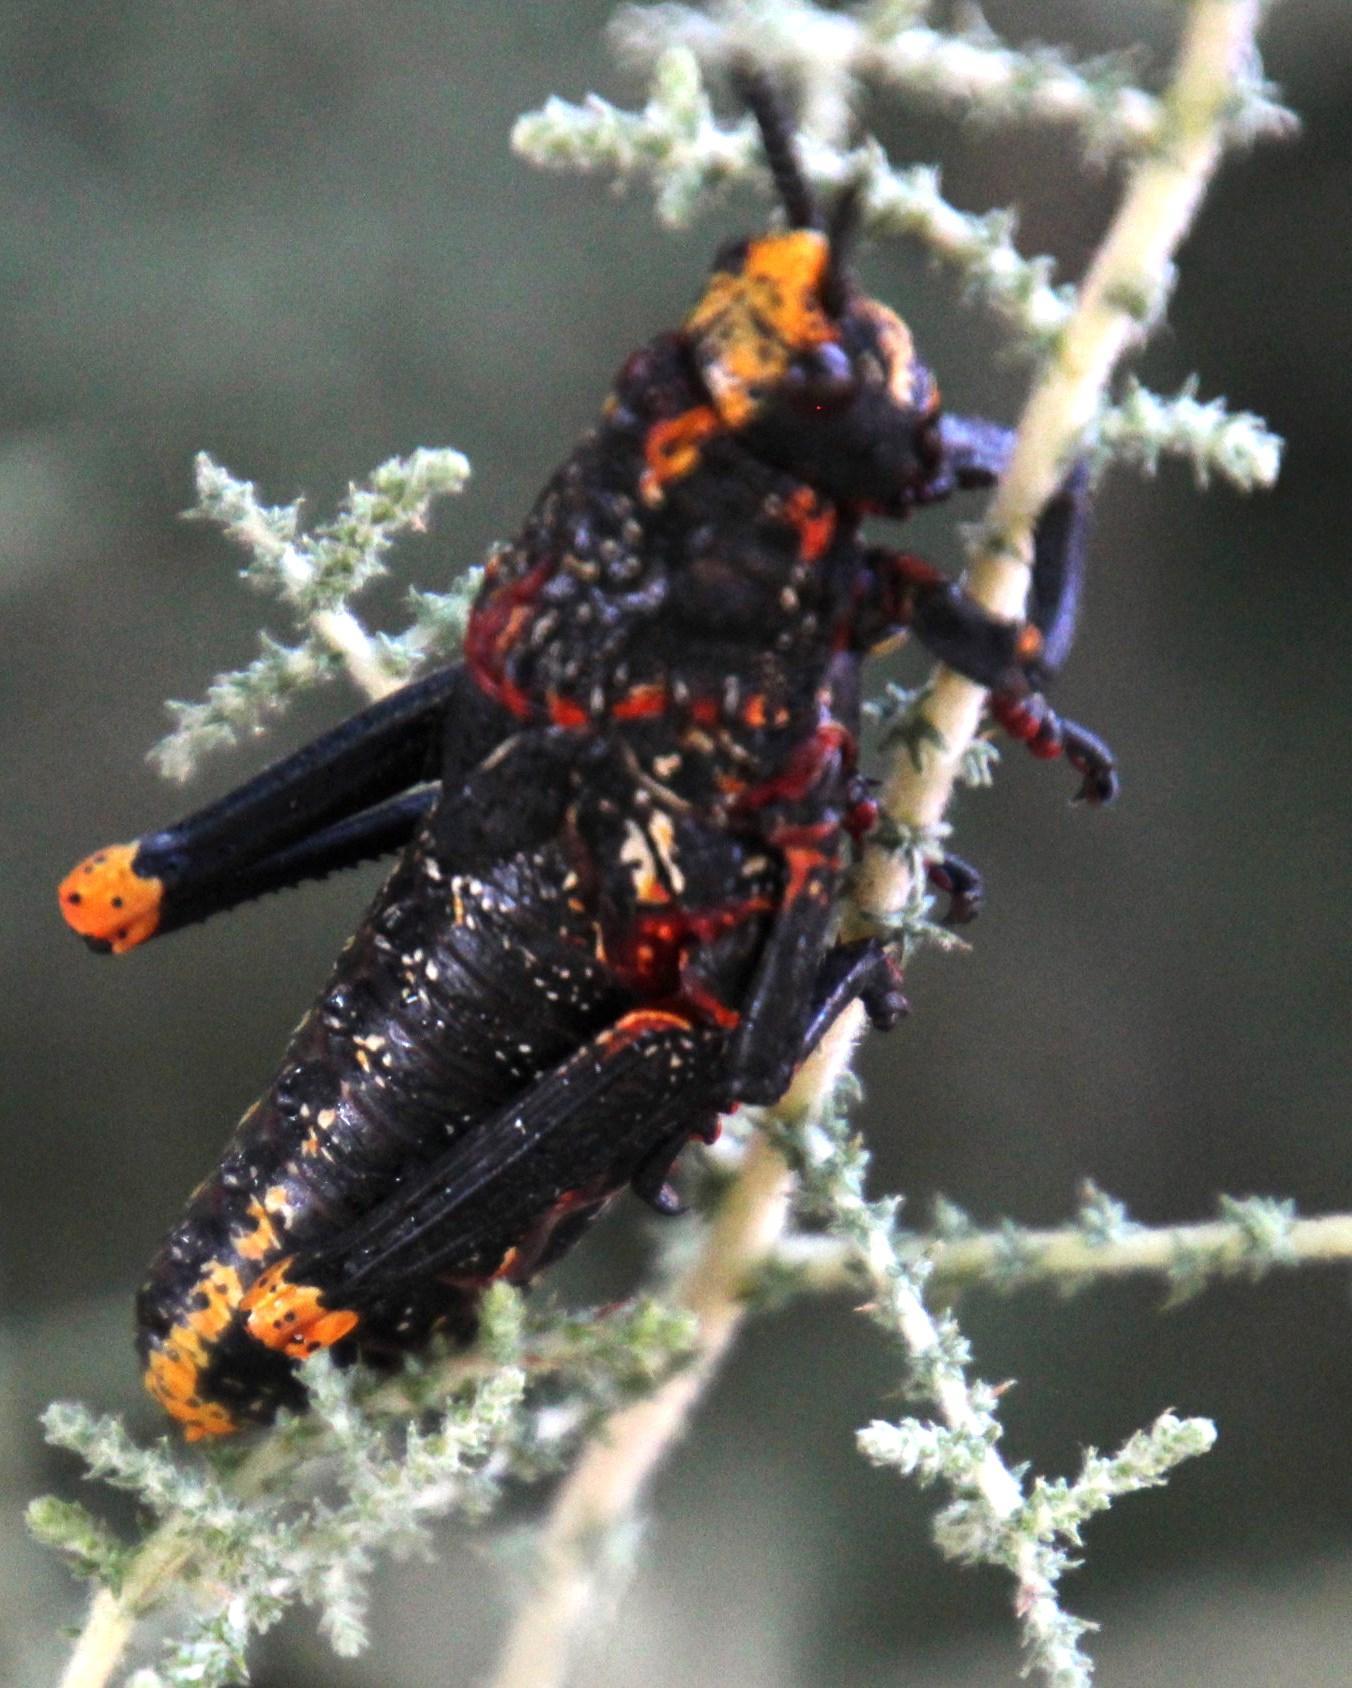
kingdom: Animalia
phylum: Arthropoda
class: Insecta
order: Orthoptera
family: Pyrgomorphidae
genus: Dictyophorus
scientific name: Dictyophorus spumans
